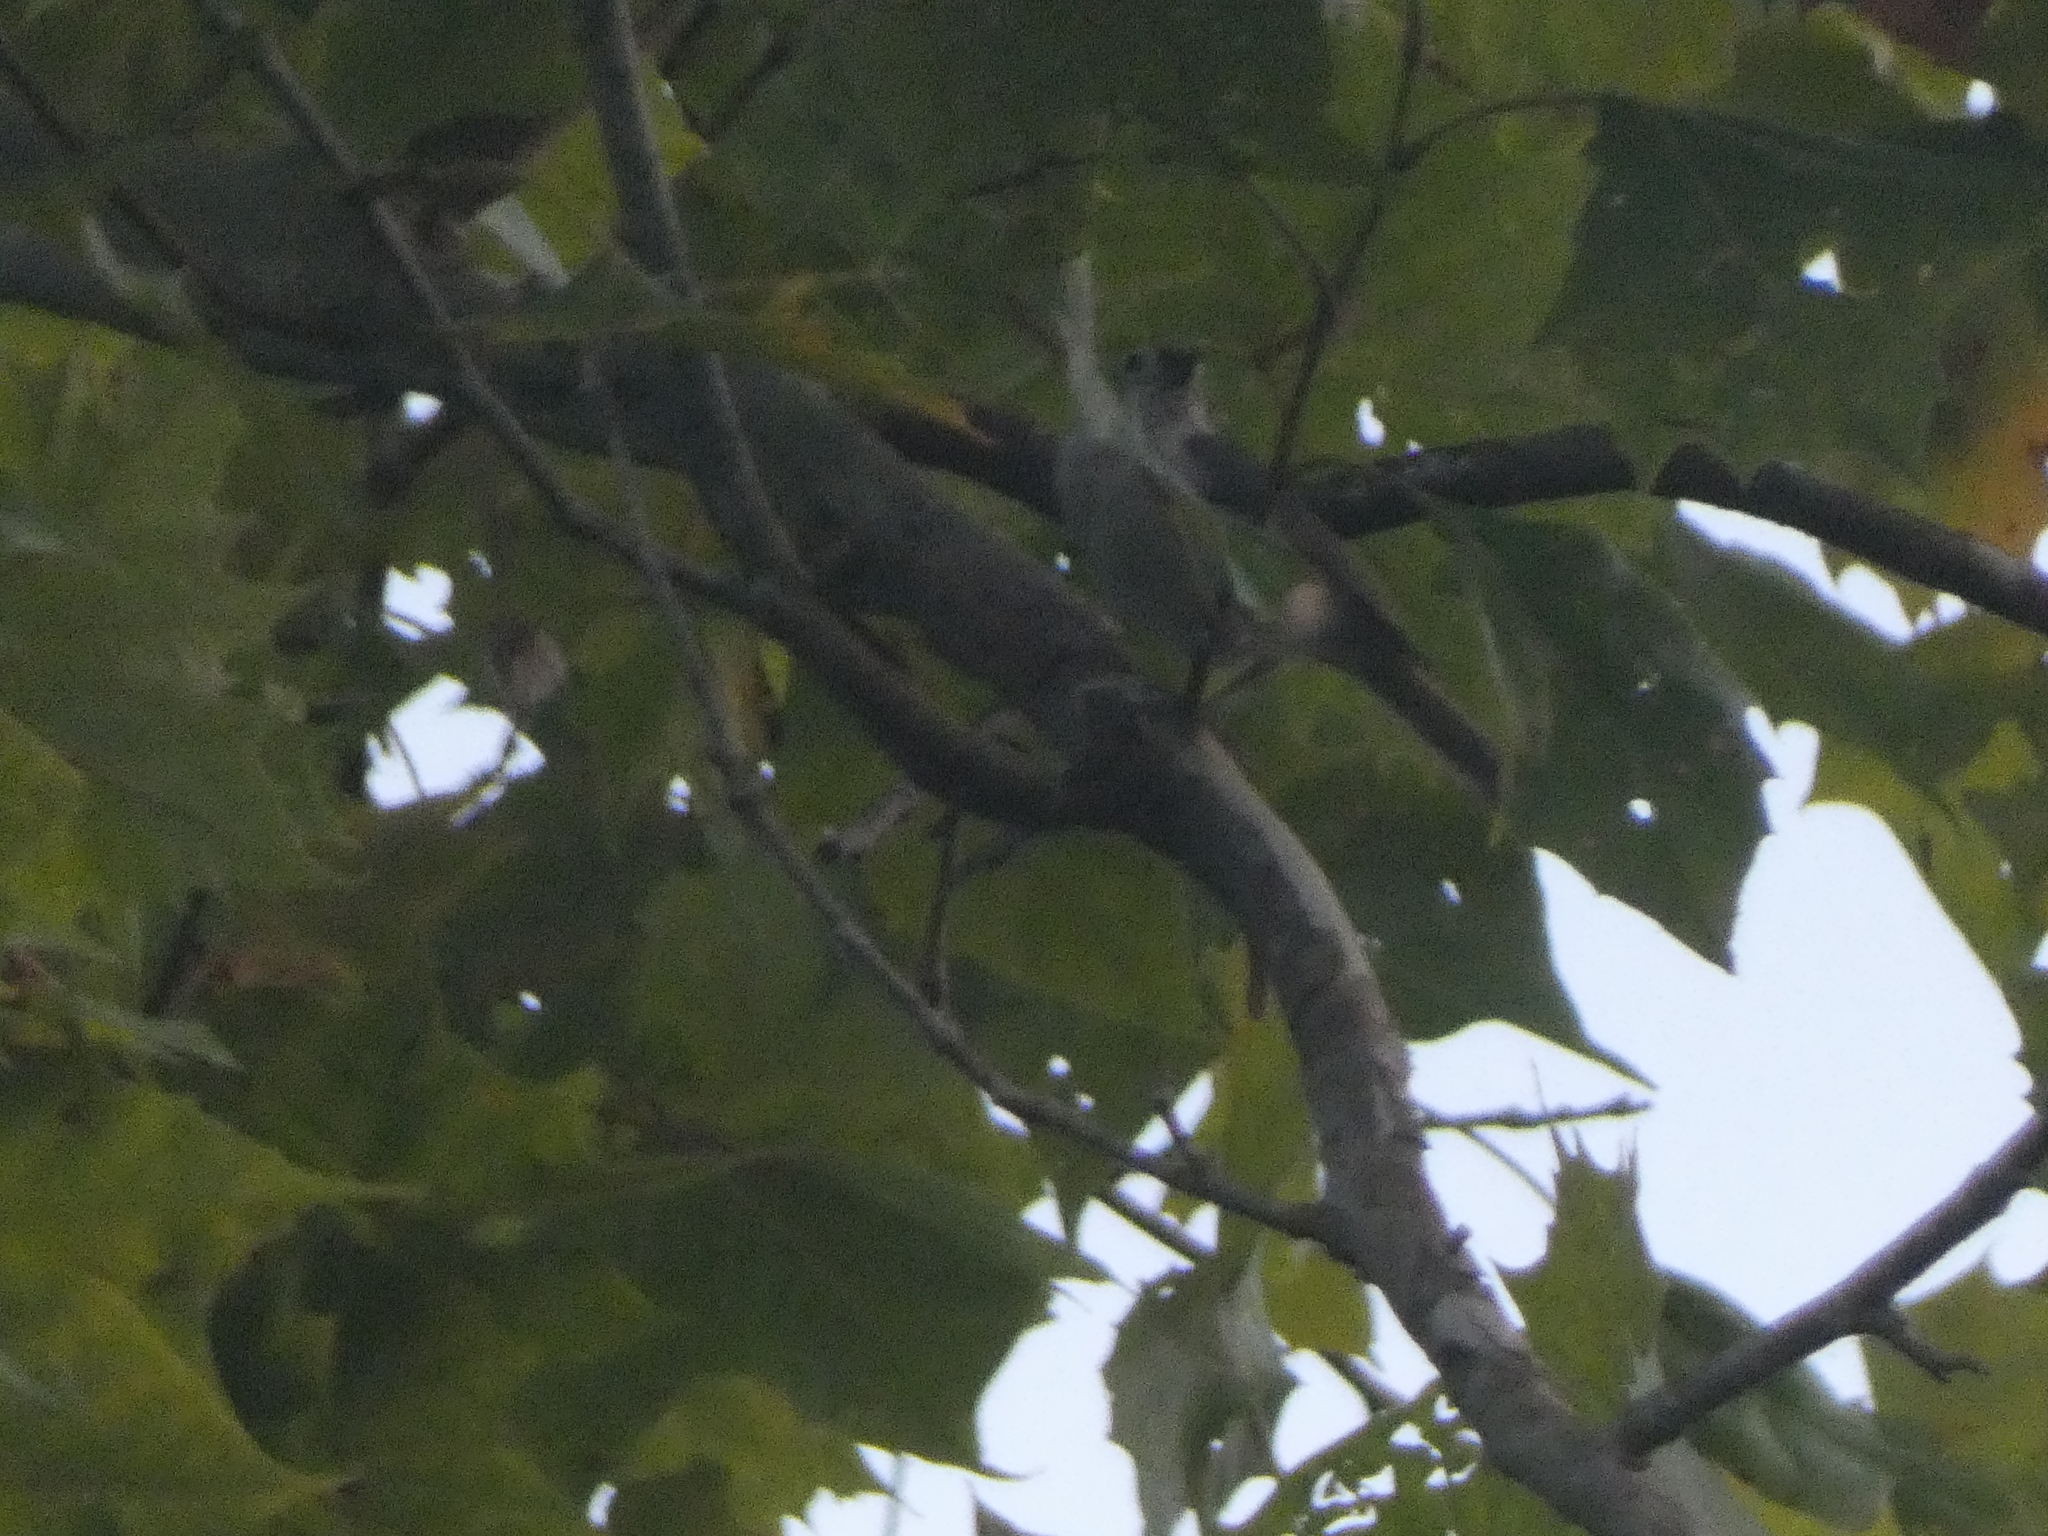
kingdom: Animalia
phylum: Chordata
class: Aves
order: Passeriformes
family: Paridae
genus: Baeolophus
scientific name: Baeolophus bicolor
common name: Tufted titmouse
